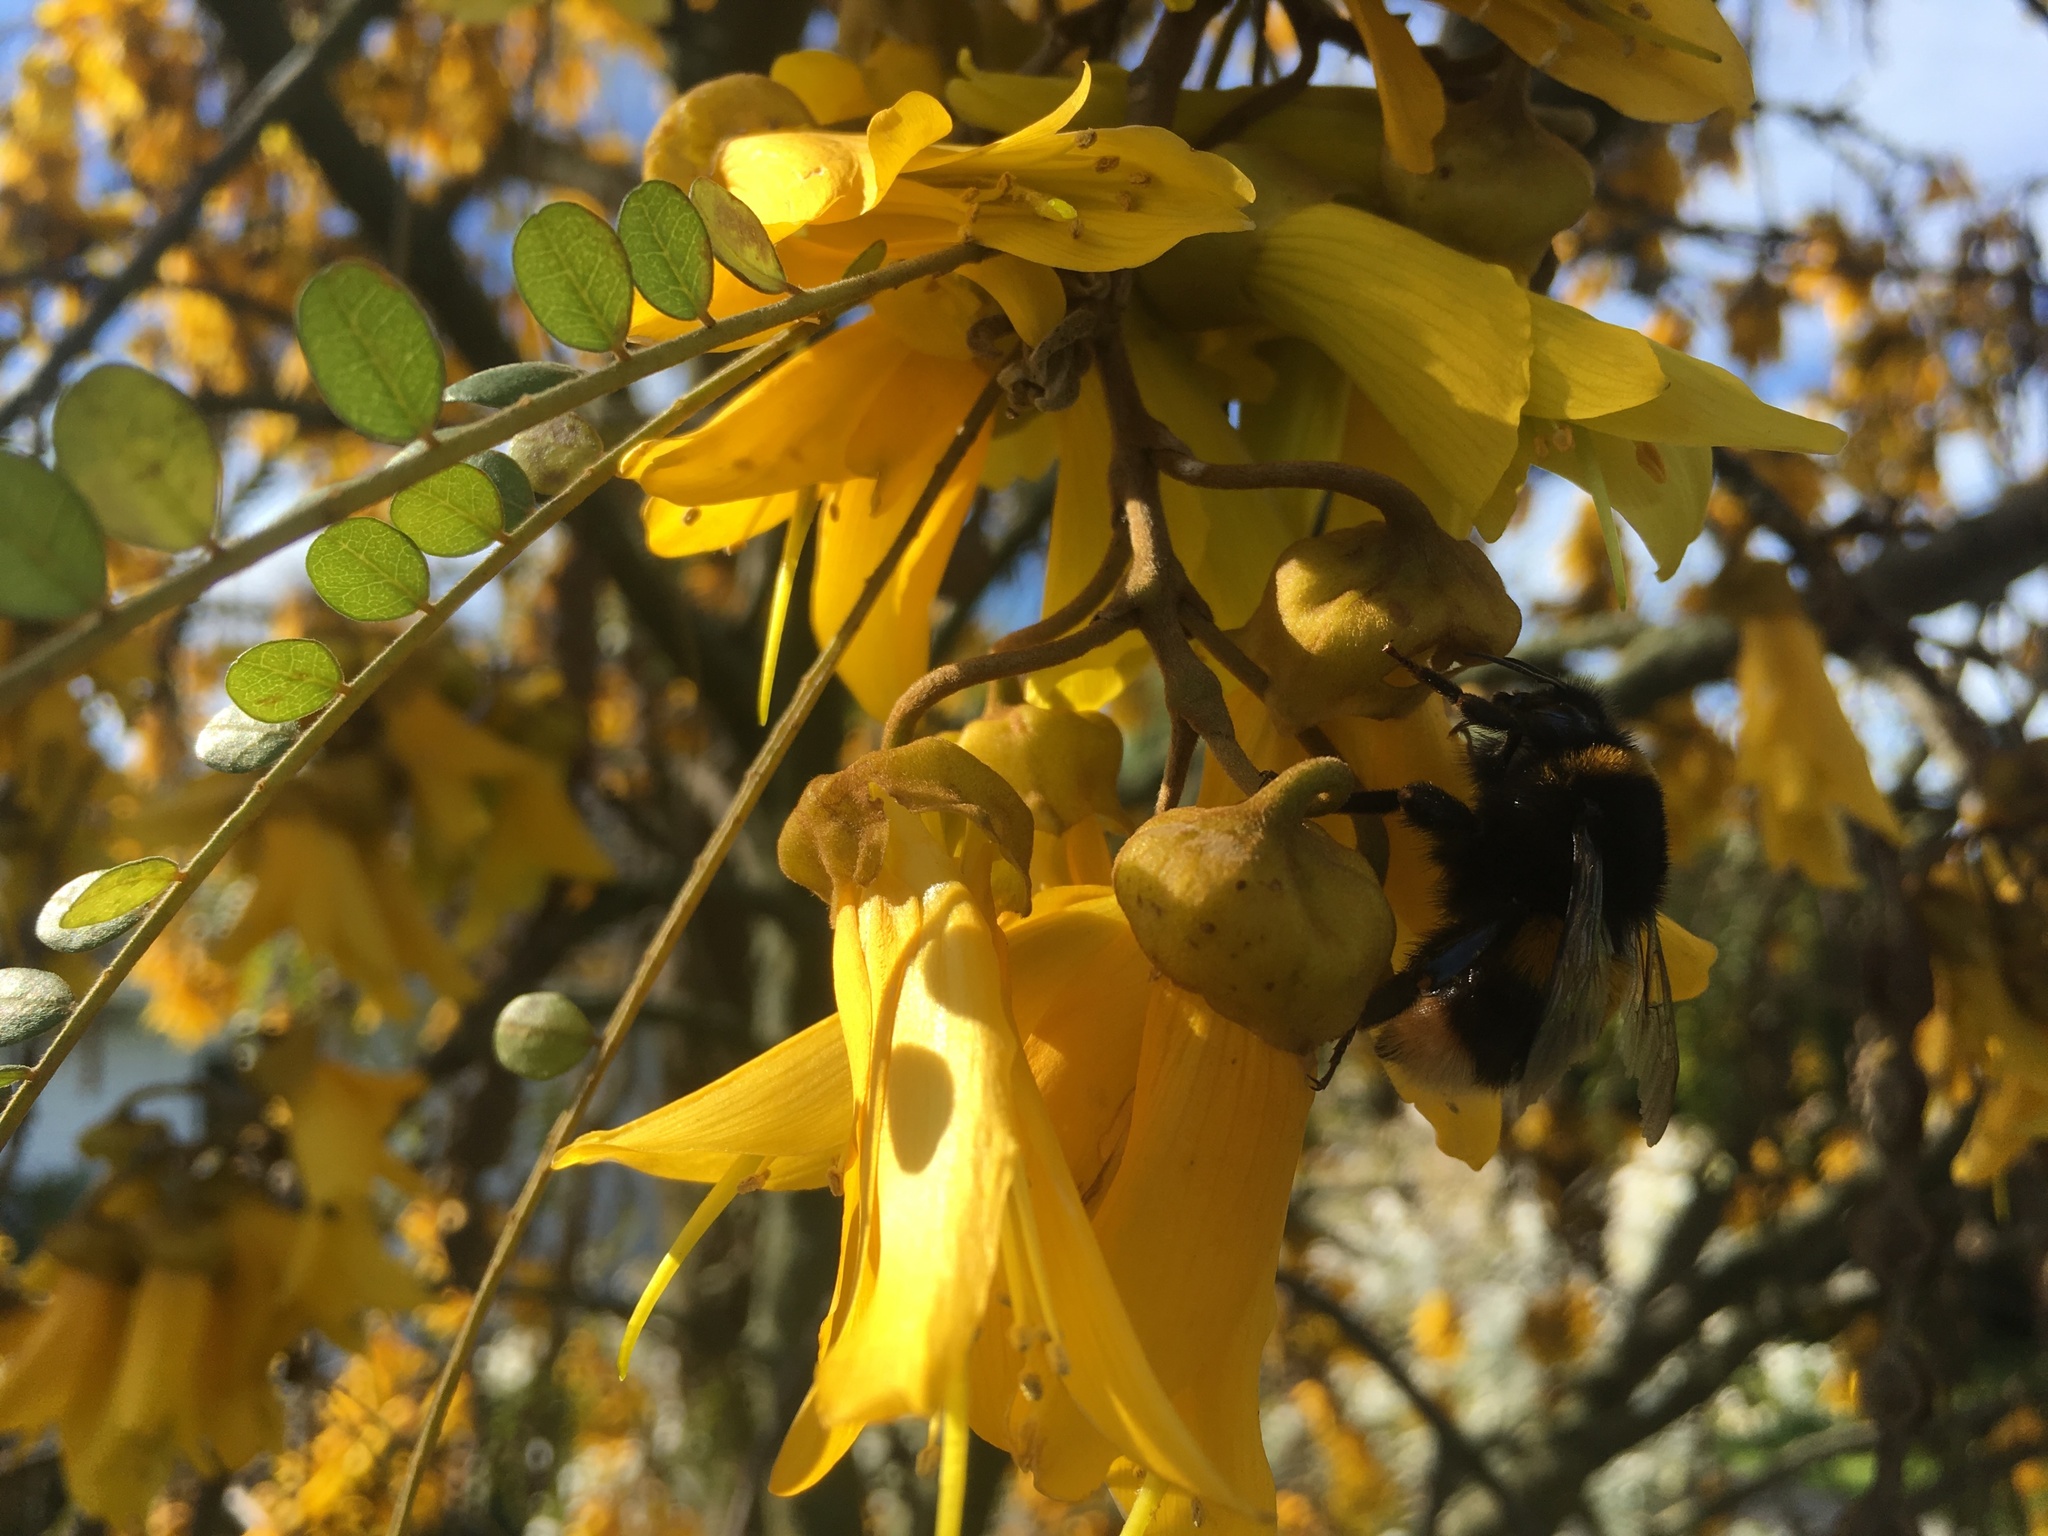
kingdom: Animalia
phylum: Arthropoda
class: Insecta
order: Hymenoptera
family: Apidae
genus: Bombus
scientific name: Bombus terrestris
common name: Buff-tailed bumblebee
